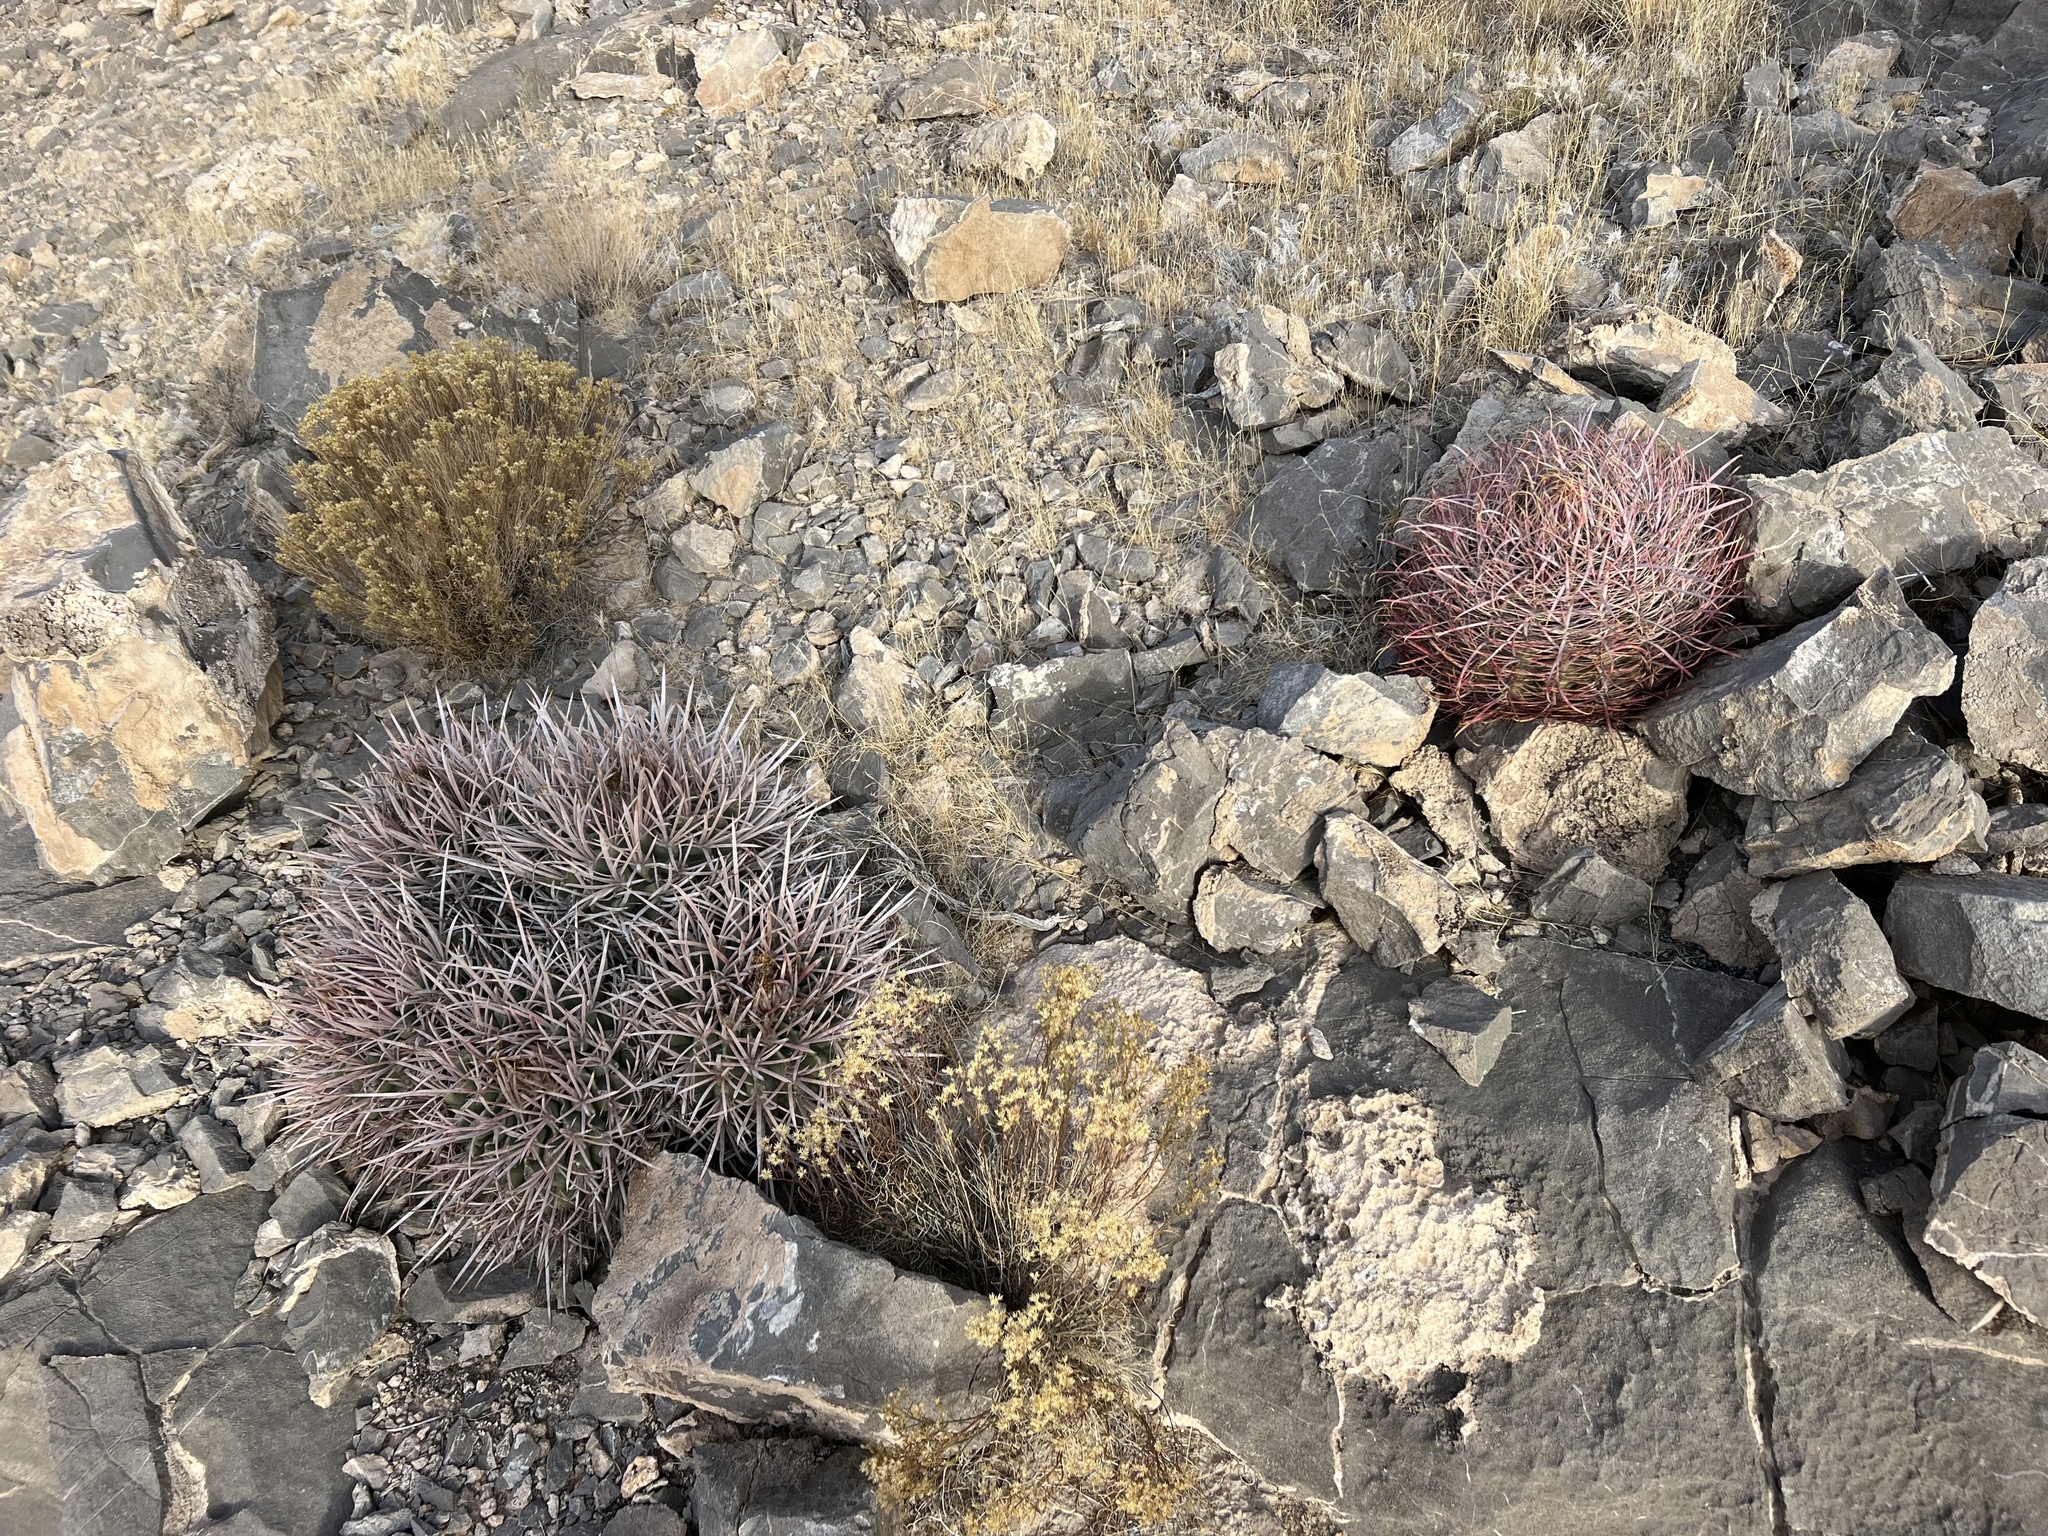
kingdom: Plantae
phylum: Tracheophyta
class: Magnoliopsida
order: Caryophyllales
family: Cactaceae
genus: Ferocactus
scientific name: Ferocactus cylindraceus
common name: California barrel cactus
